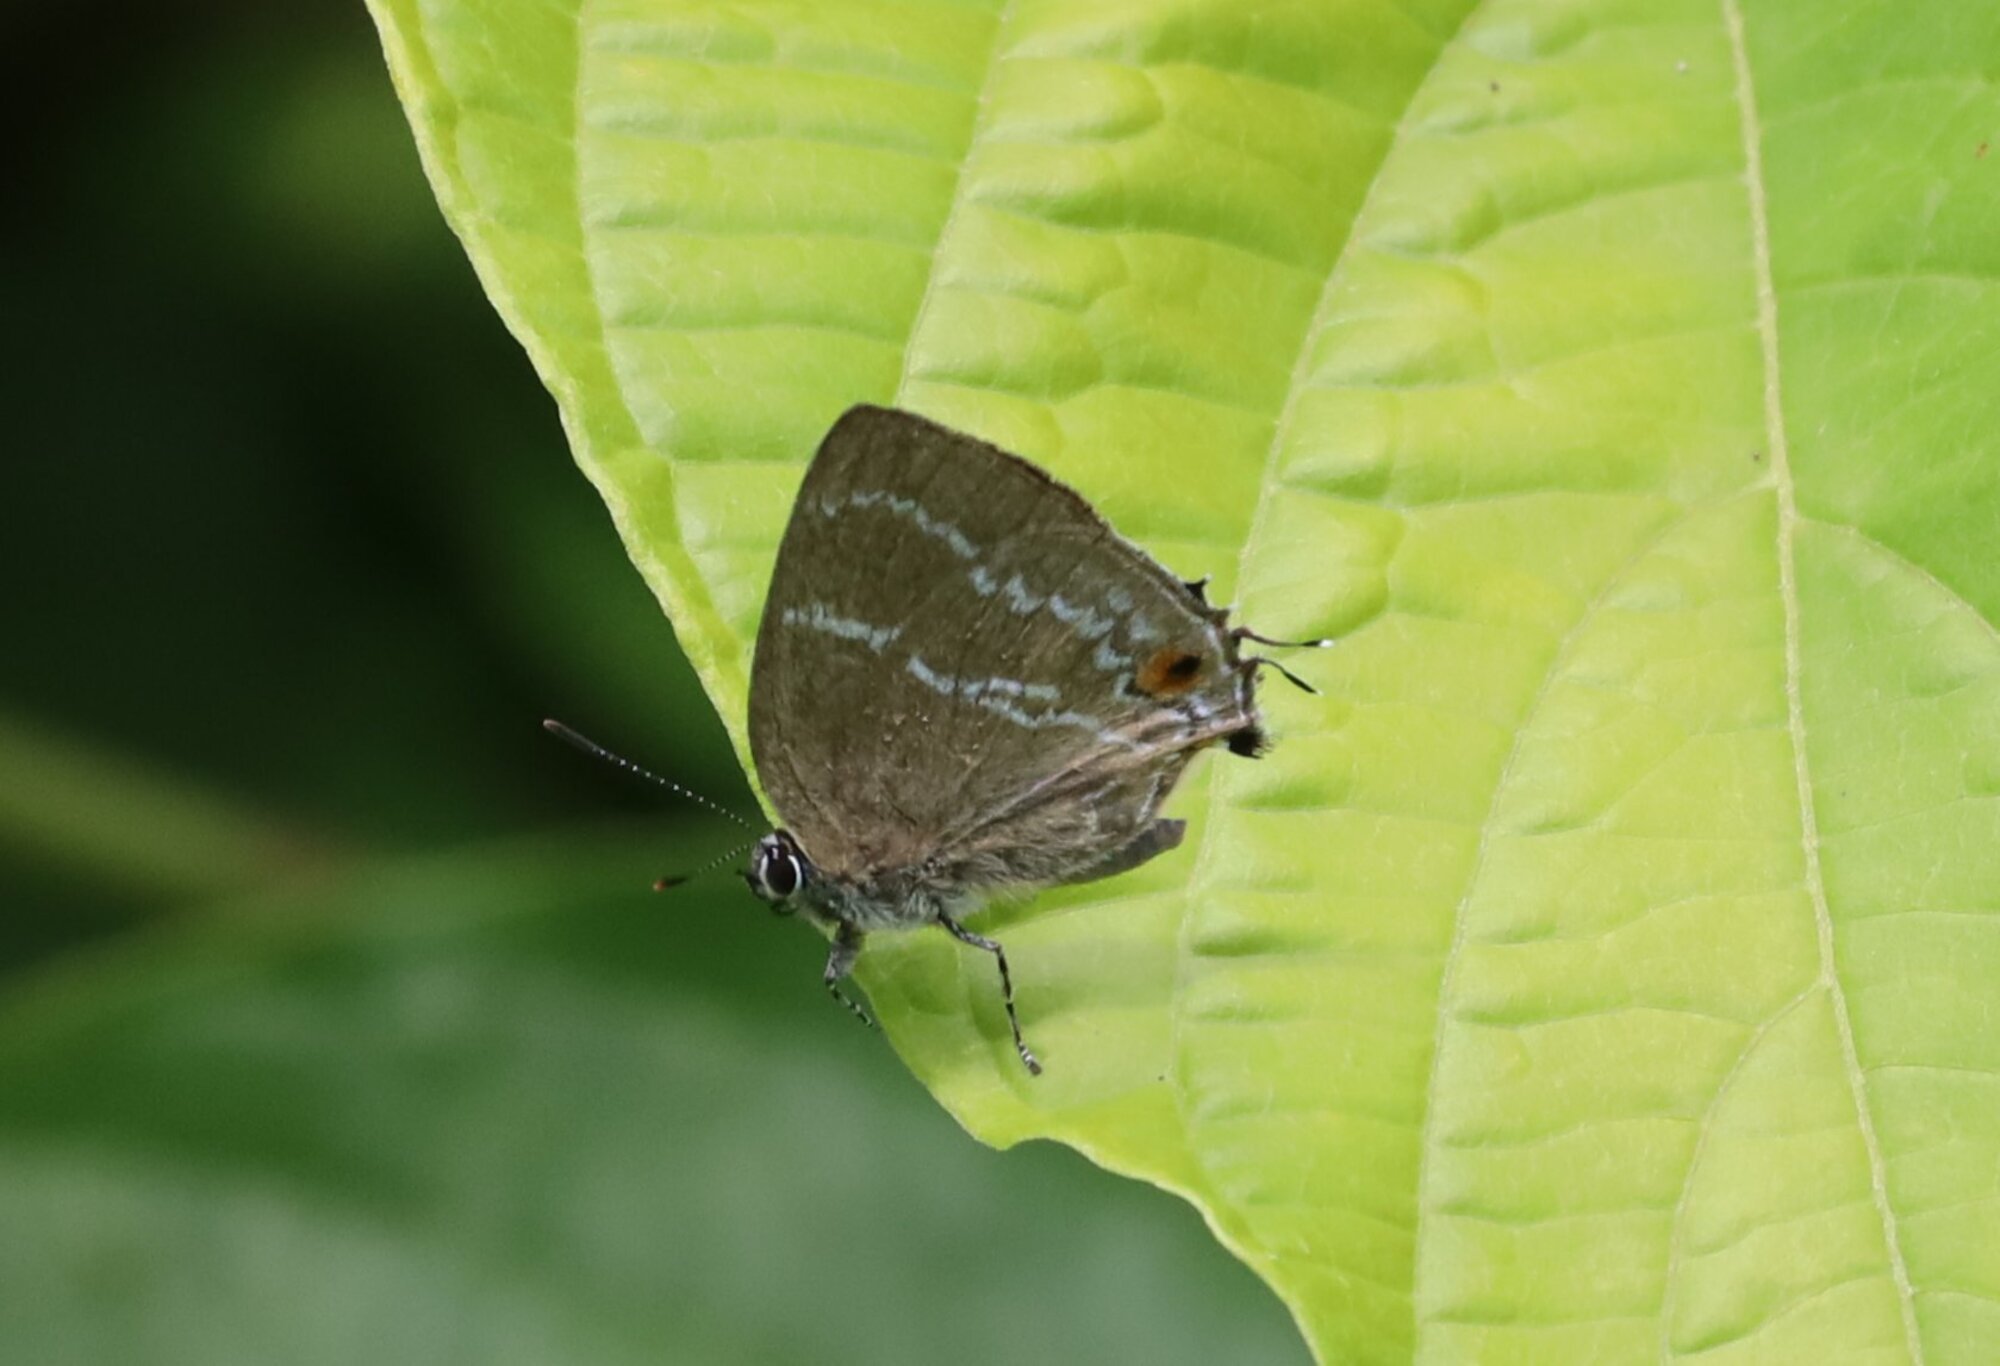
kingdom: Animalia
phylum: Arthropoda
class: Insecta
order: Lepidoptera
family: Lycaenidae
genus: Cupathecla
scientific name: Cupathecla
